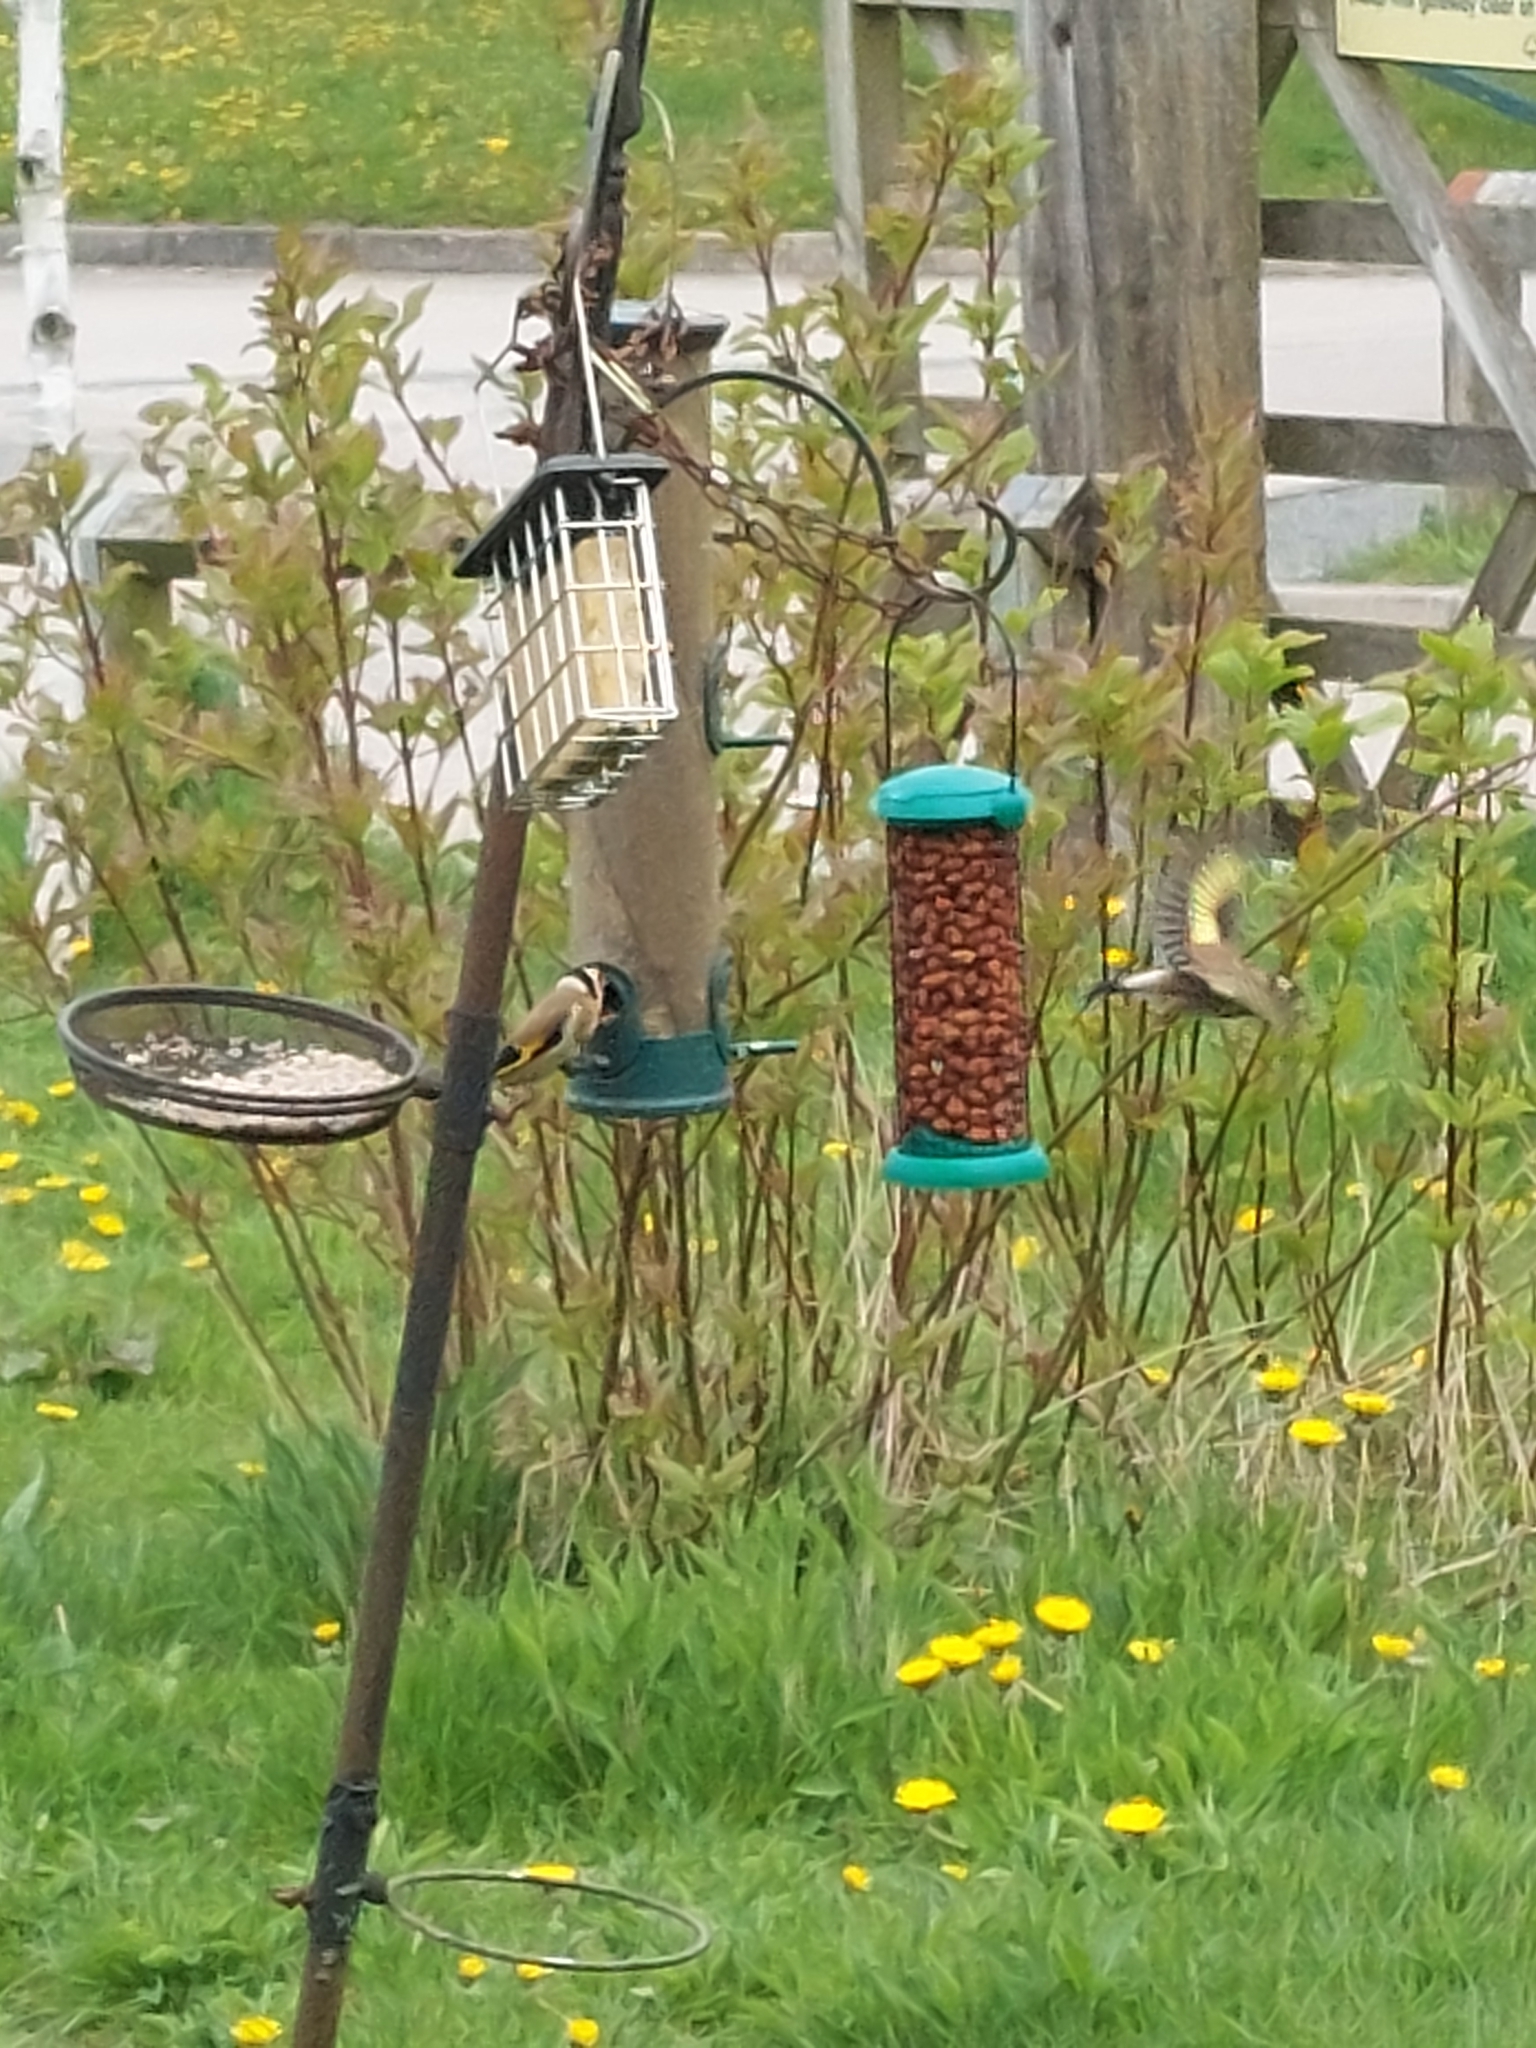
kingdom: Animalia
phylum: Chordata
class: Aves
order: Passeriformes
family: Fringillidae
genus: Carduelis
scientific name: Carduelis carduelis
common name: European goldfinch
